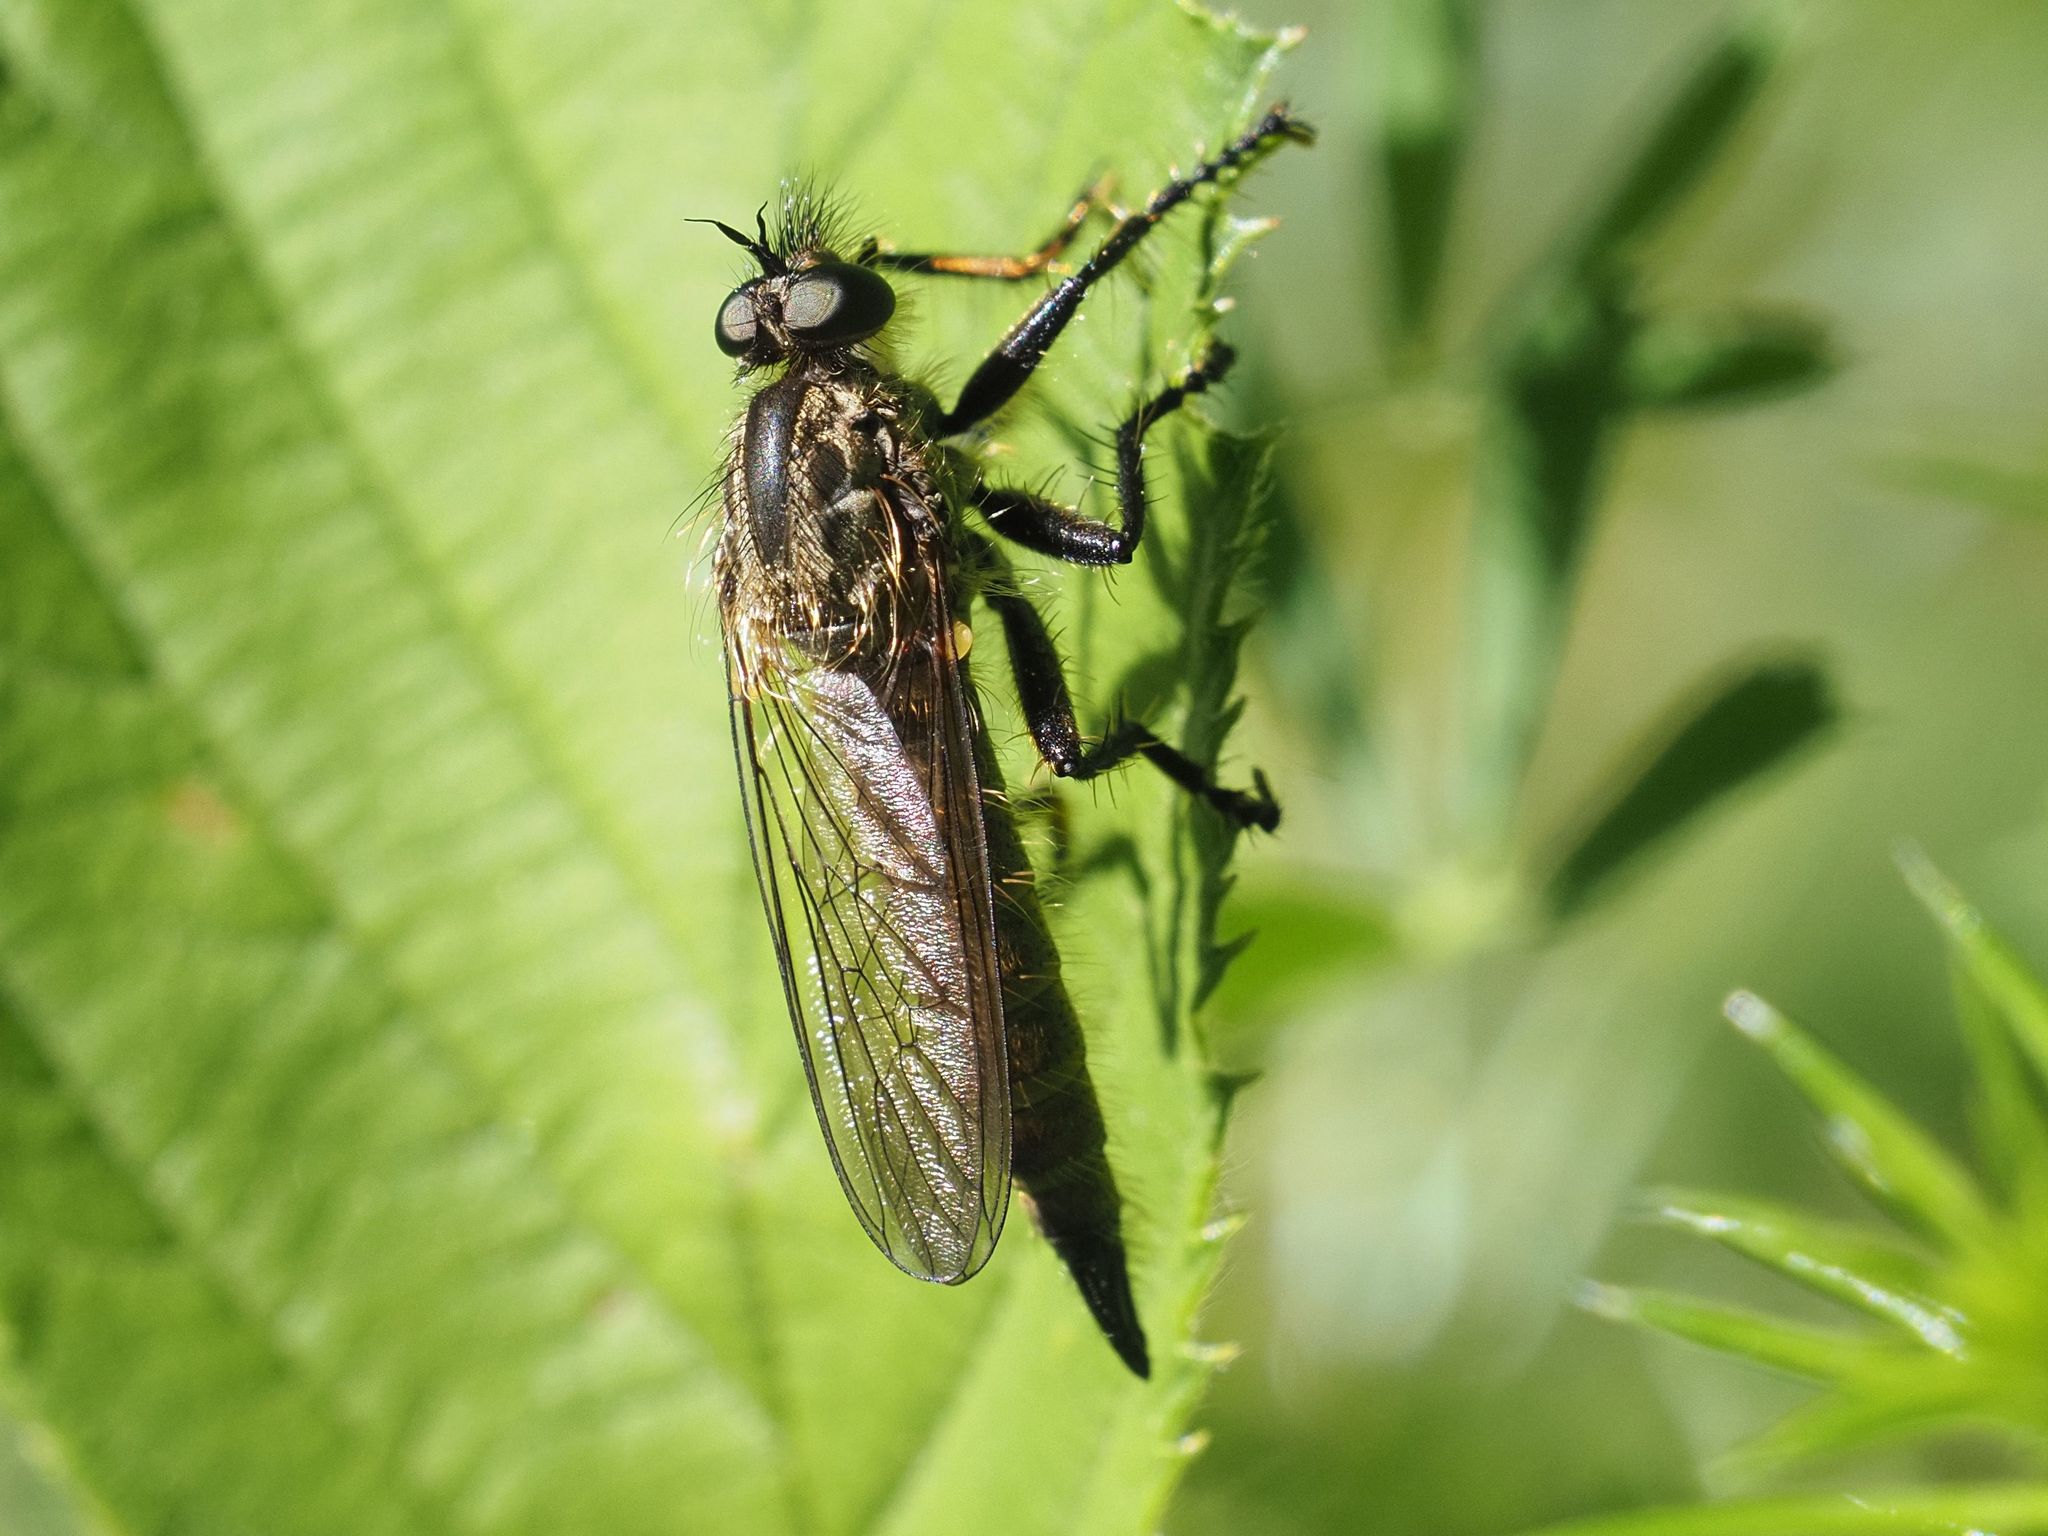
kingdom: Animalia
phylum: Arthropoda
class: Insecta
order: Diptera
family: Asilidae
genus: Didysmachus
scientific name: Didysmachus picipes
